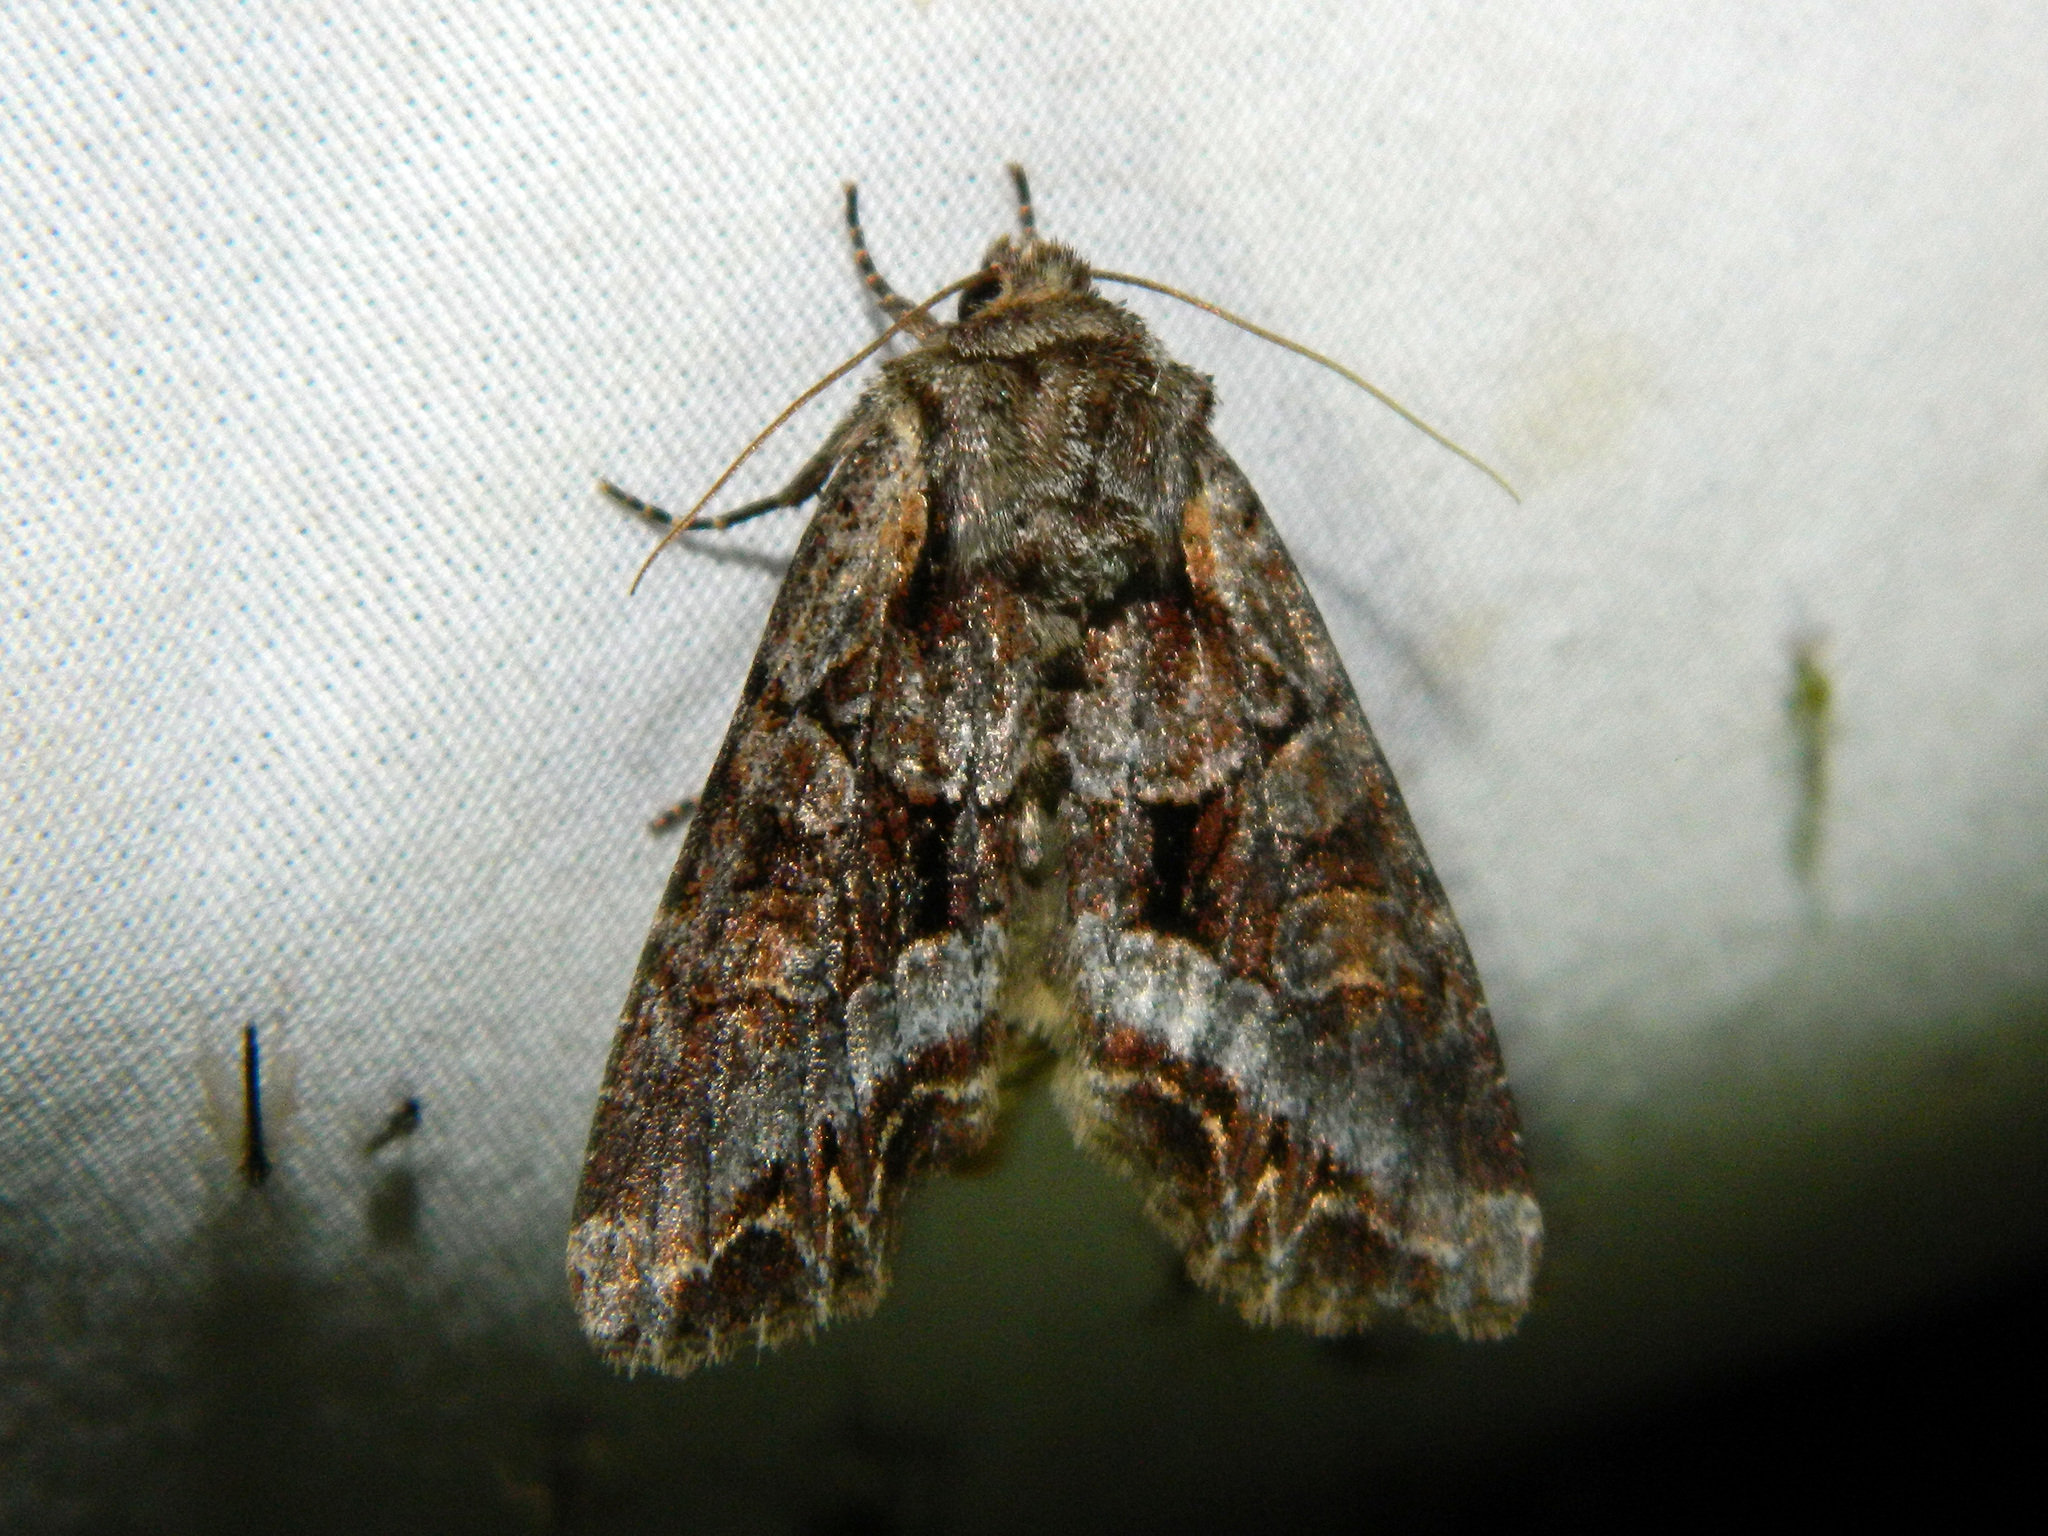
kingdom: Animalia
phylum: Arthropoda
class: Insecta
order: Lepidoptera
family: Noctuidae
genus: Lacanobia
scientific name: Lacanobia grandis
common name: Grand arches moth
